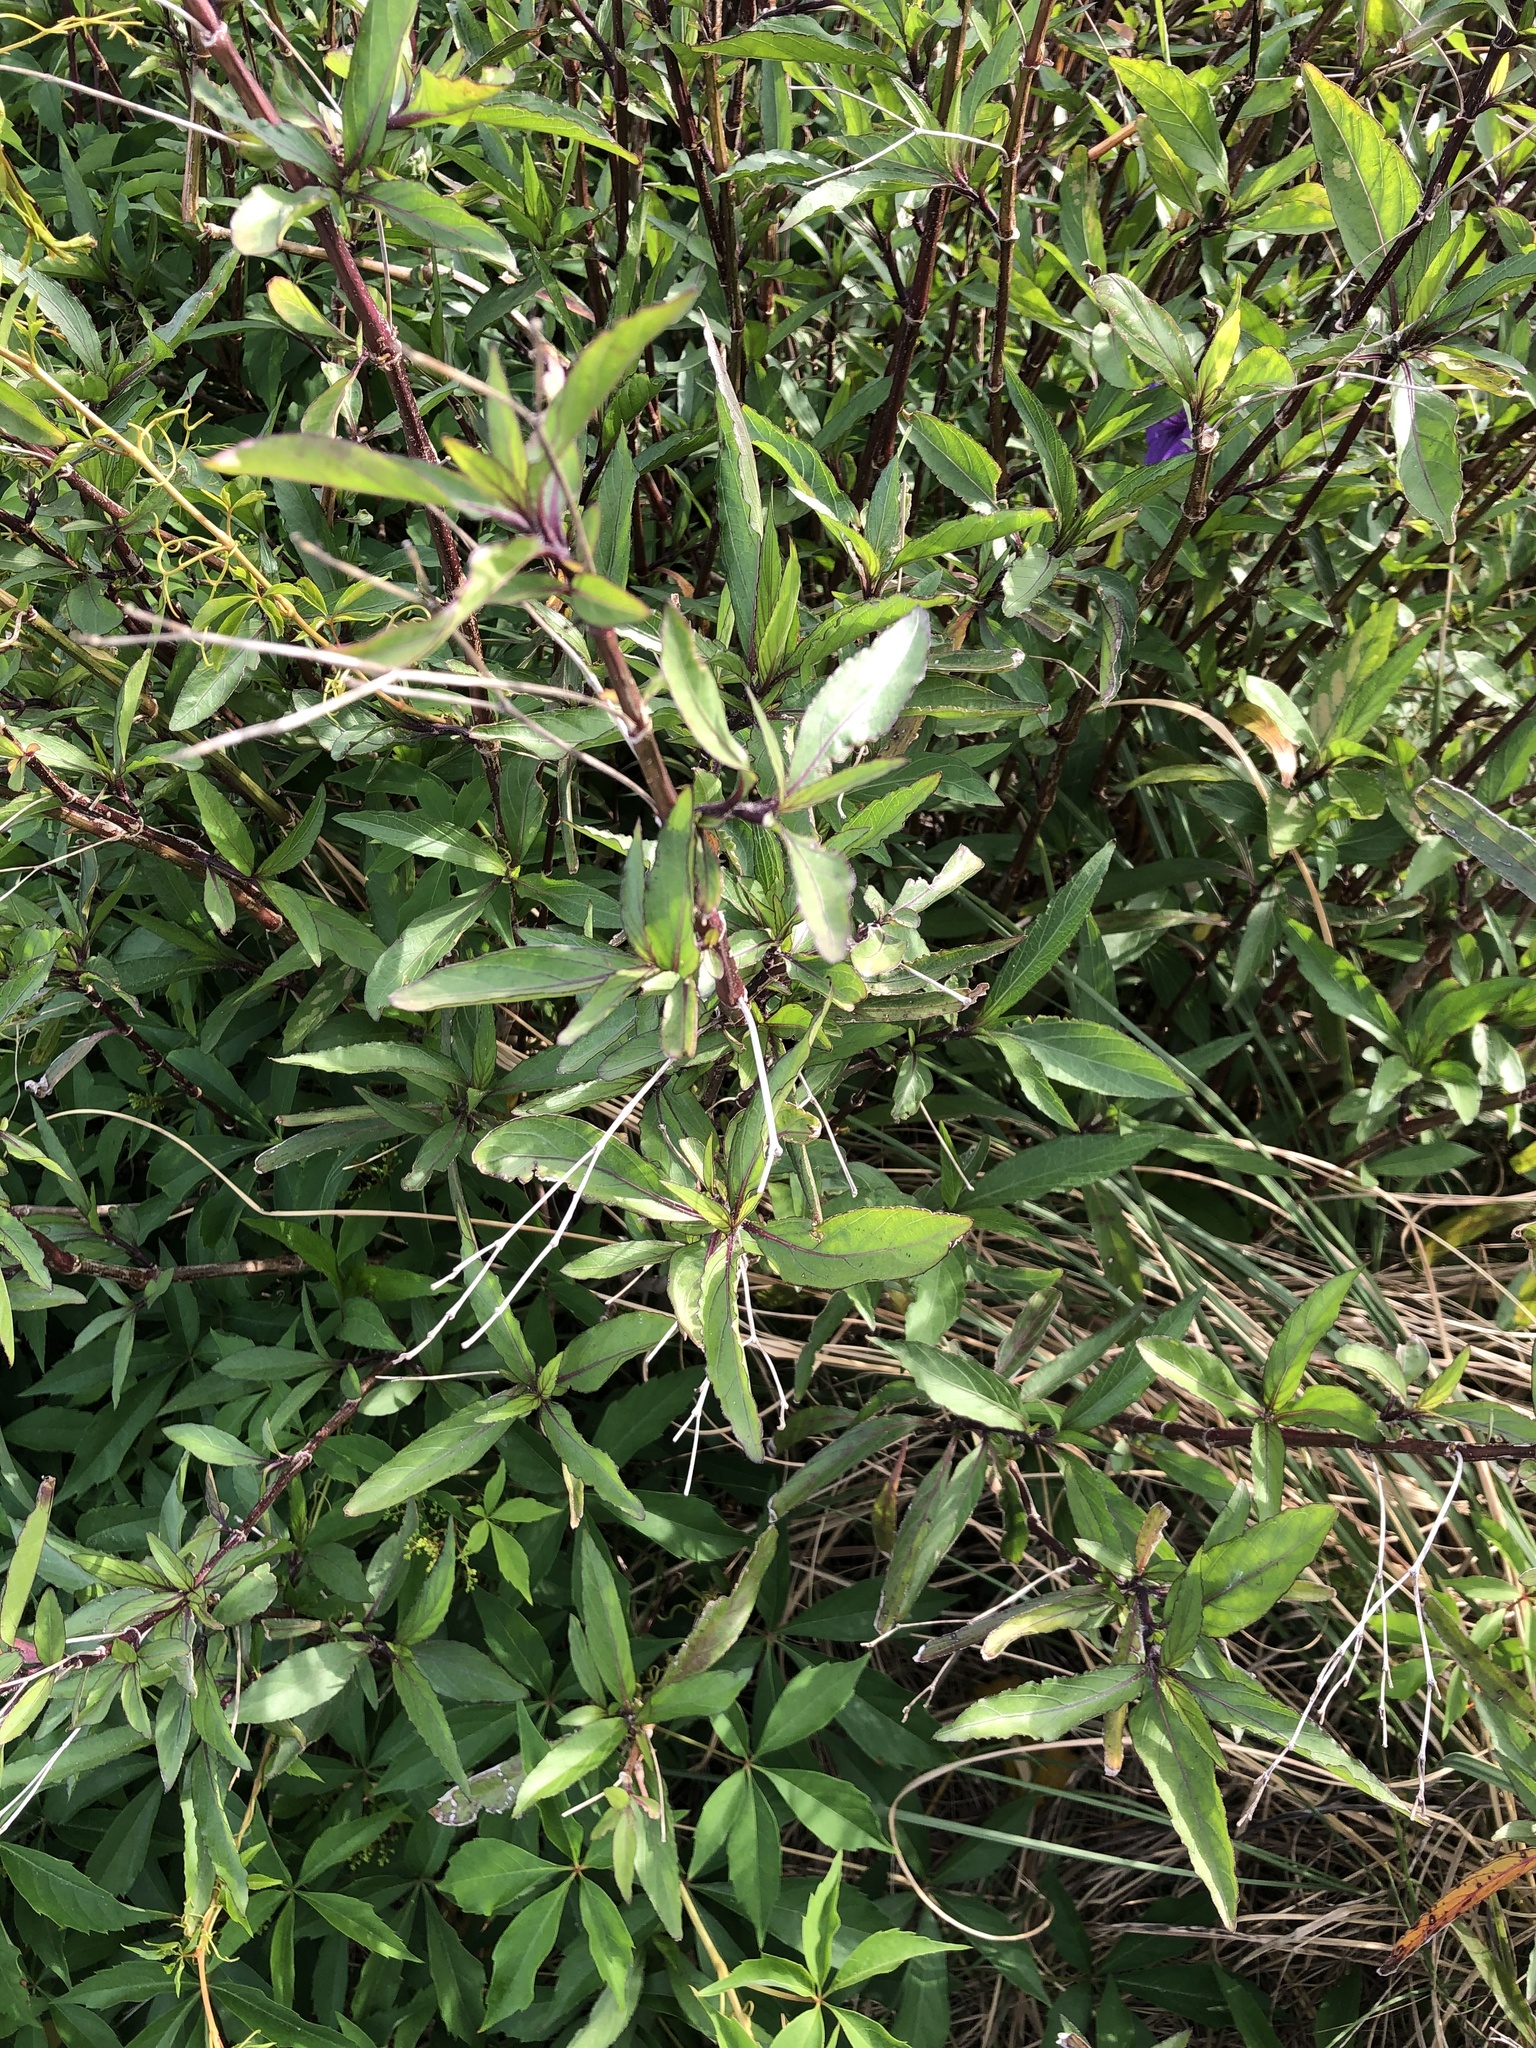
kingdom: Plantae
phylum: Tracheophyta
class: Magnoliopsida
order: Lamiales
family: Acanthaceae
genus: Ruellia
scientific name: Ruellia simplex
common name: Softseed wild petunia
